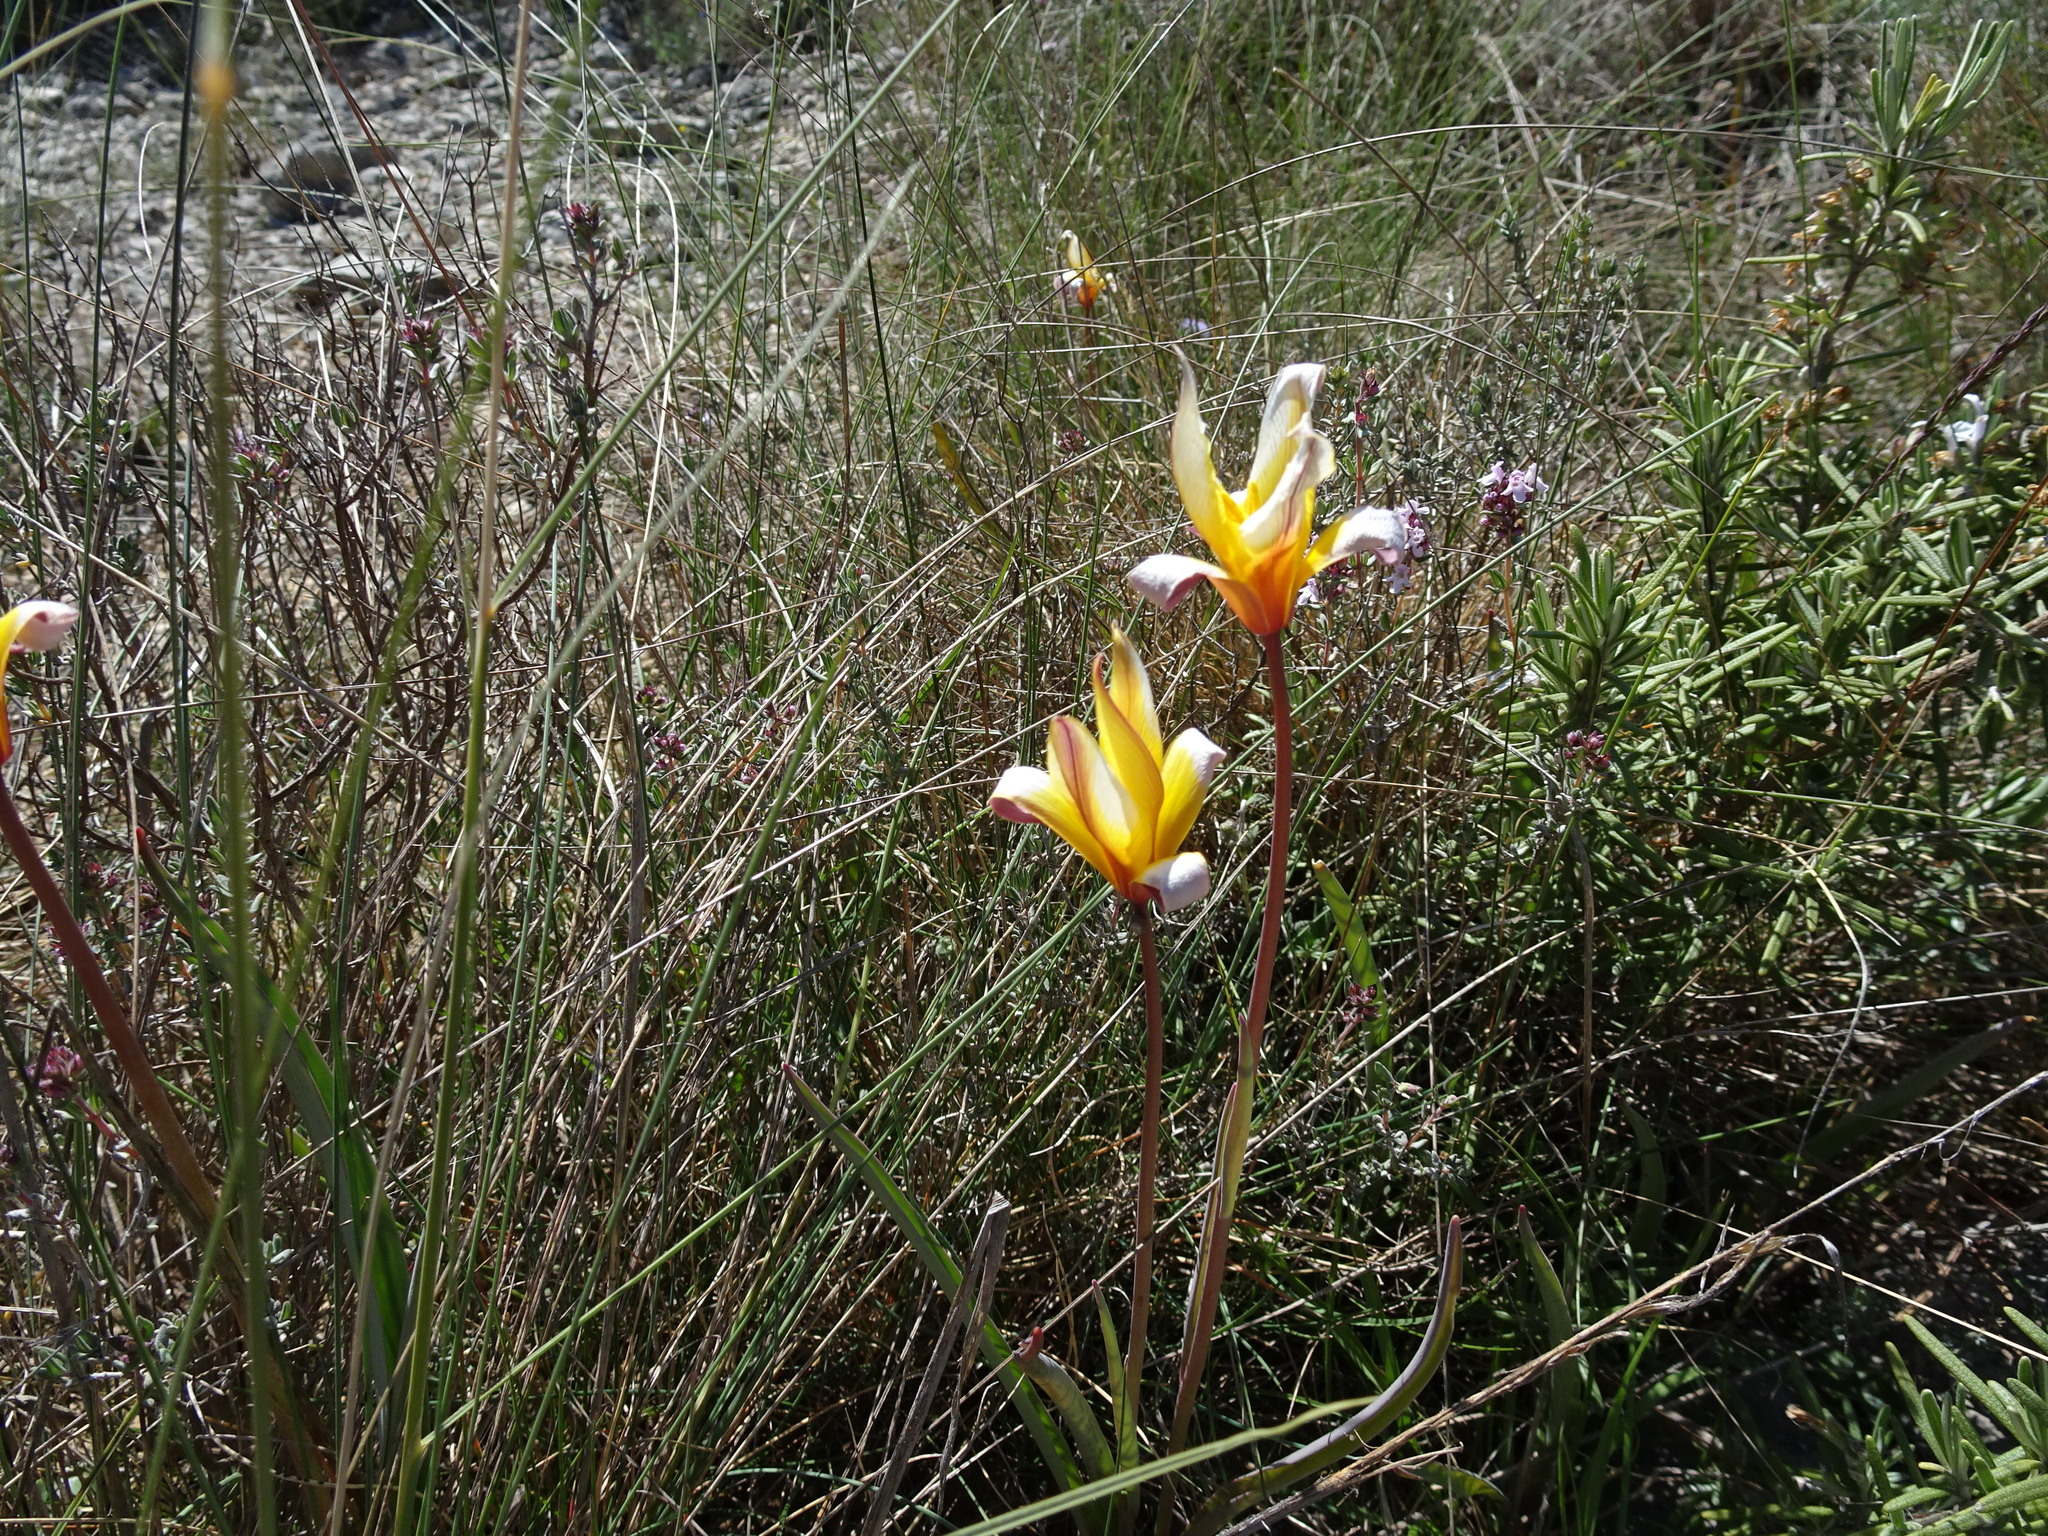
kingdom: Plantae
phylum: Tracheophyta
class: Liliopsida
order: Liliales
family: Liliaceae
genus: Tulipa
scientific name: Tulipa sylvestris
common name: Wild tulip
